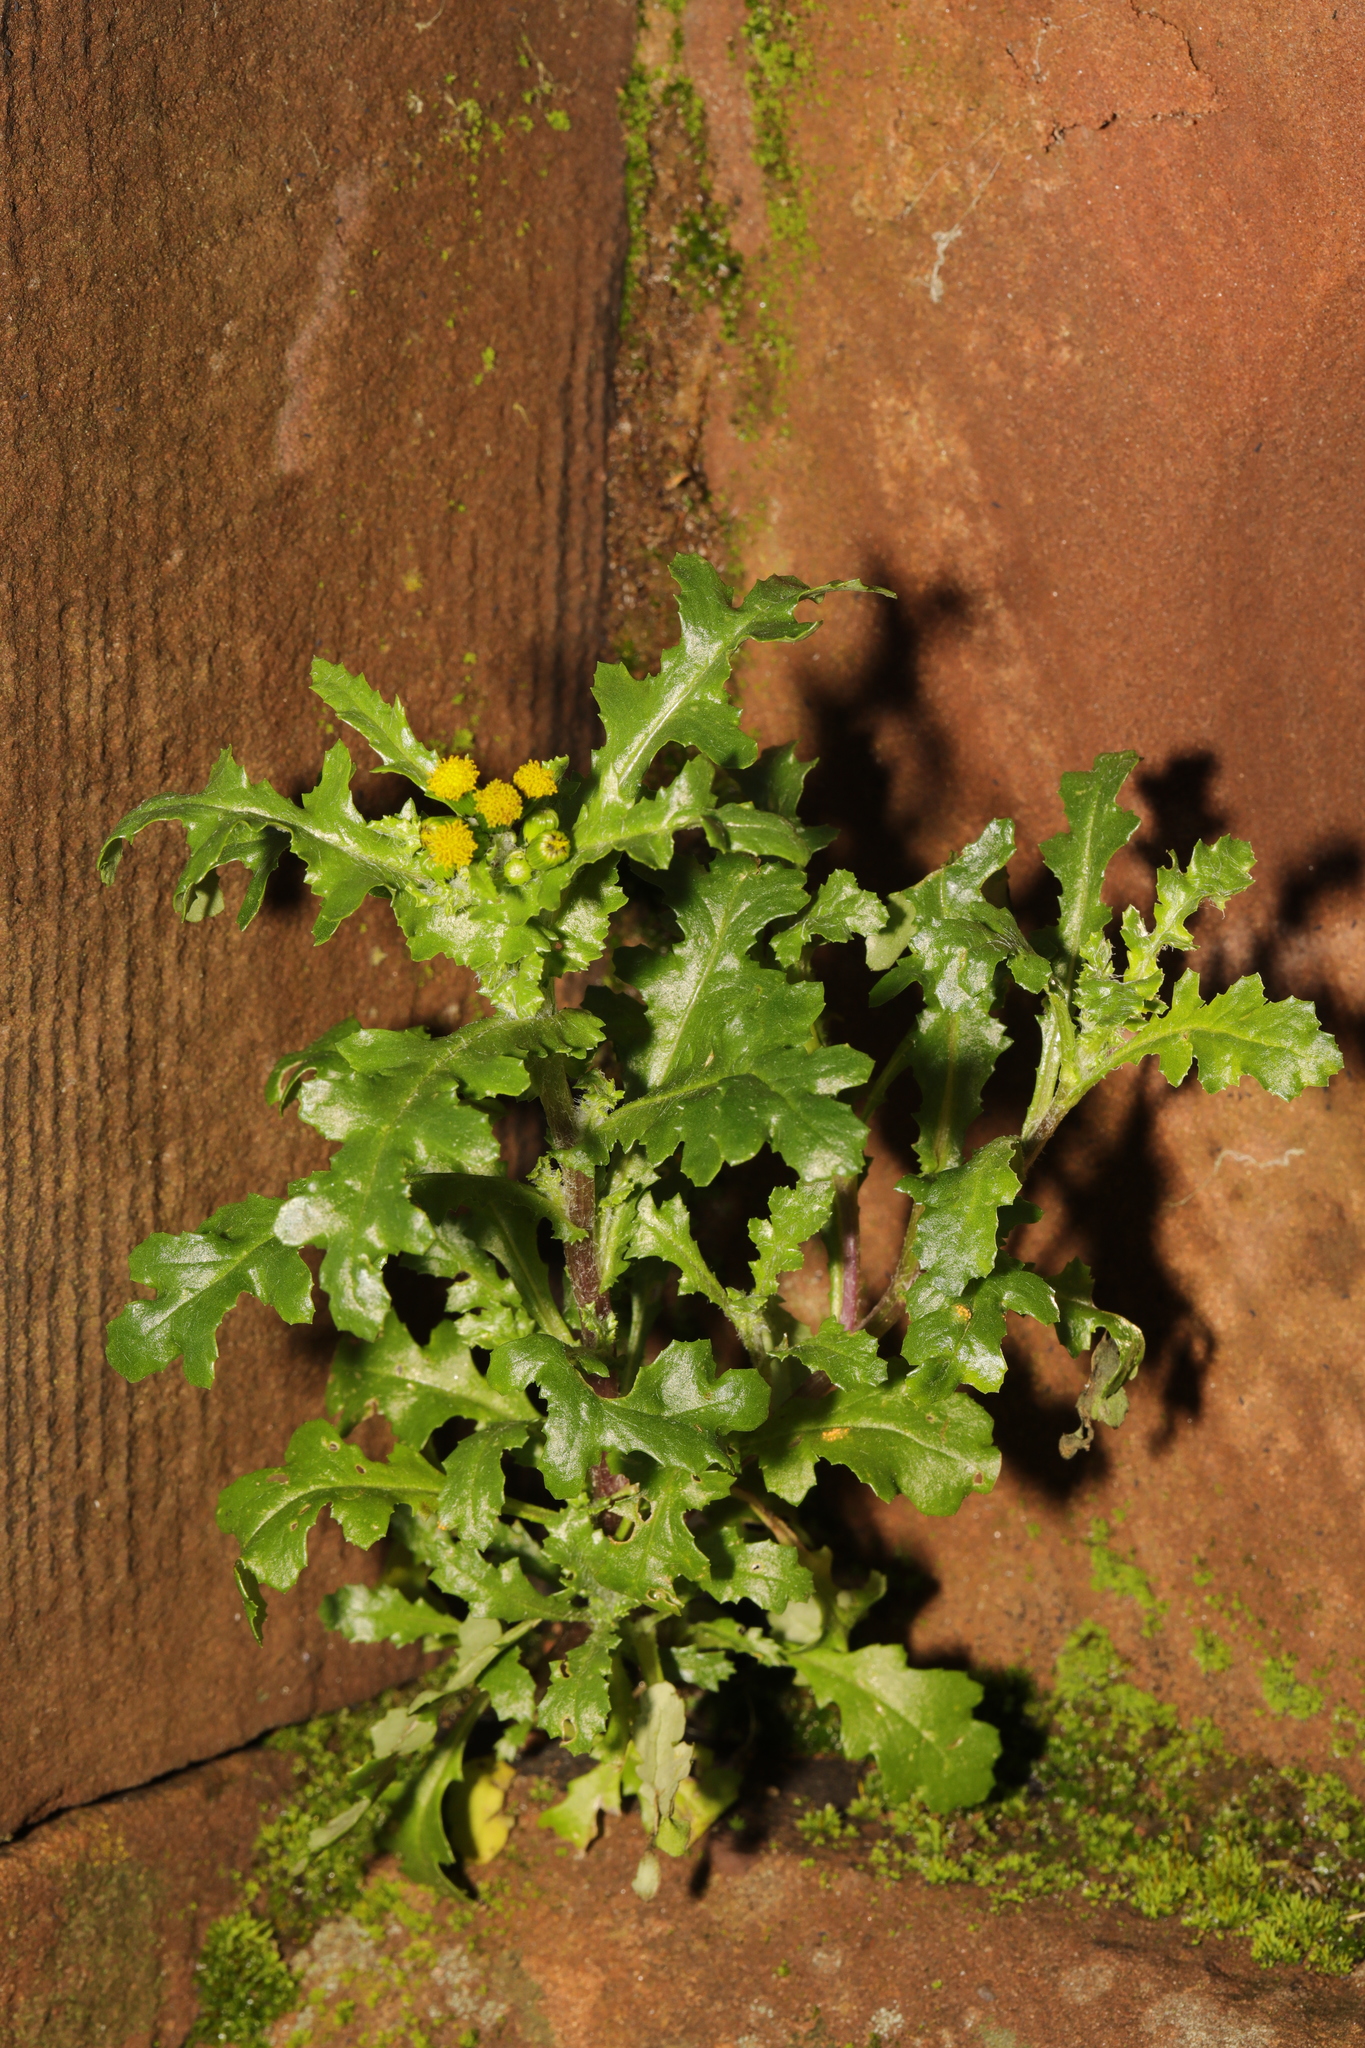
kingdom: Plantae
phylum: Tracheophyta
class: Magnoliopsida
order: Asterales
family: Asteraceae
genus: Senecio
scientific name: Senecio vulgaris
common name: Old-man-in-the-spring
